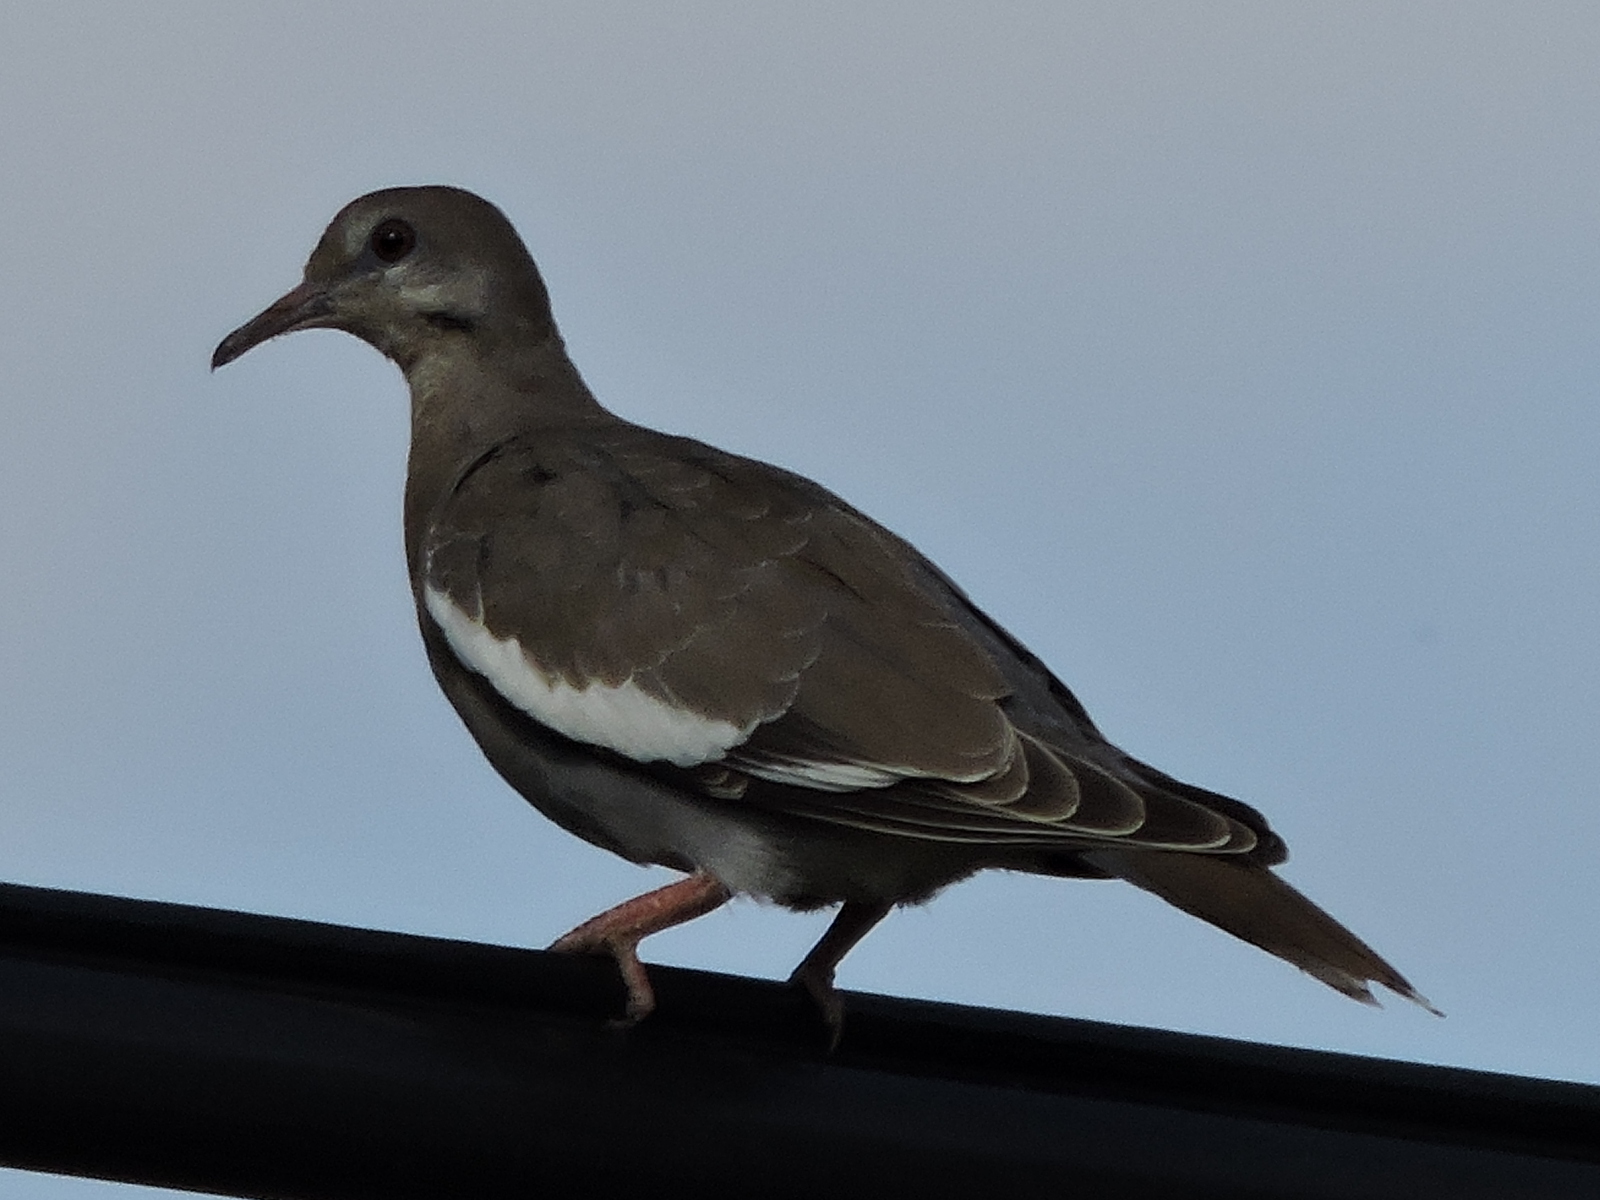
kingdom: Animalia
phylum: Chordata
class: Aves
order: Columbiformes
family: Columbidae
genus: Zenaida
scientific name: Zenaida asiatica
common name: White-winged dove
